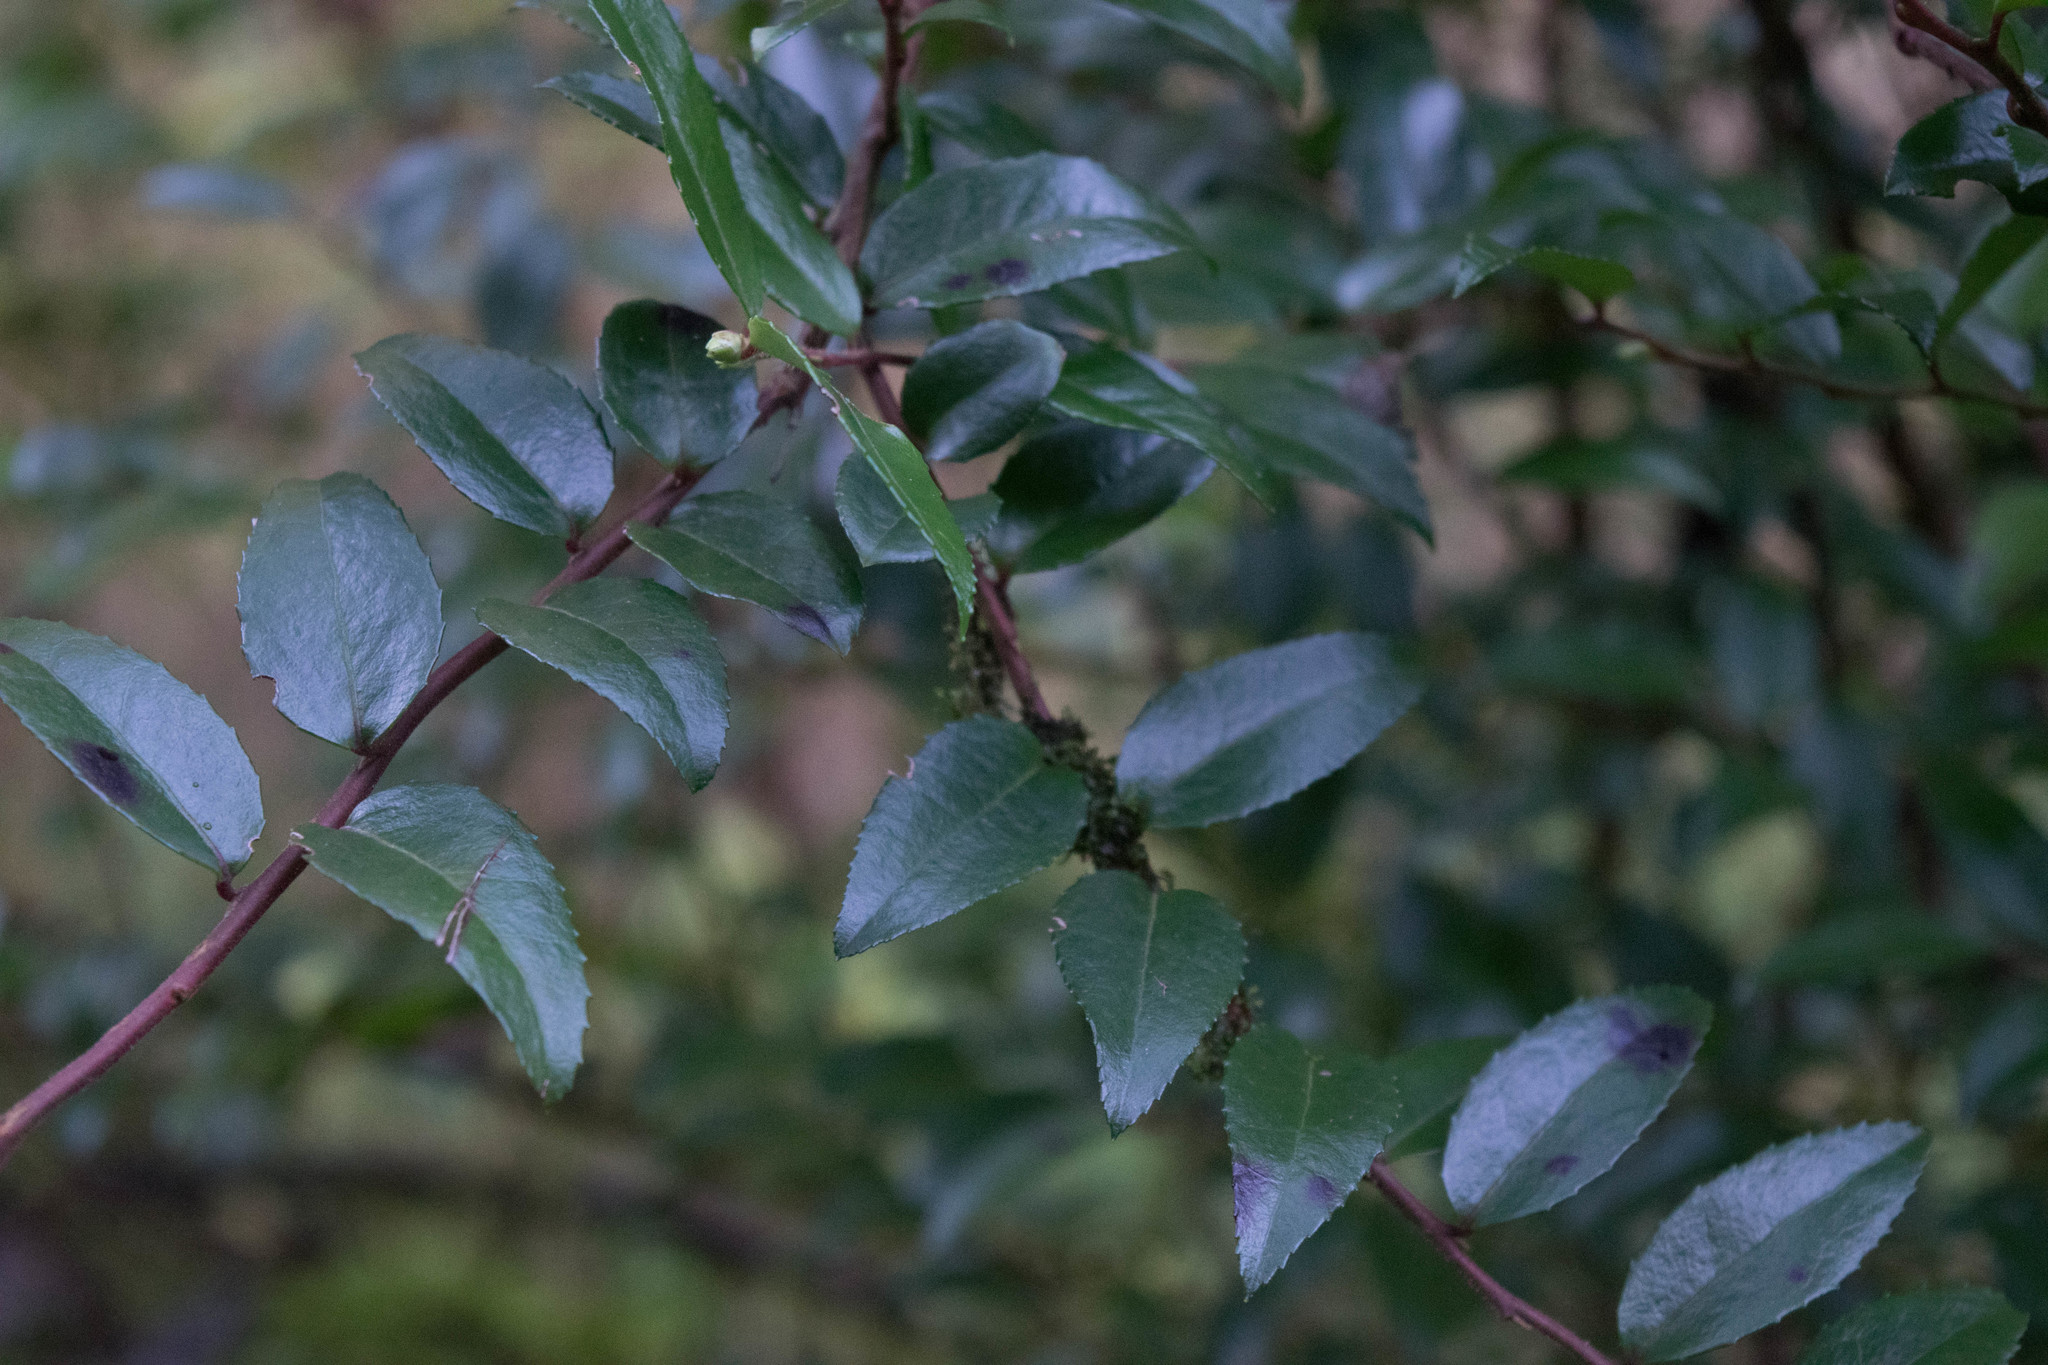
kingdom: Plantae
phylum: Tracheophyta
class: Magnoliopsida
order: Ericales
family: Ericaceae
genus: Vaccinium
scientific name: Vaccinium ovatum
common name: California-huckleberry
